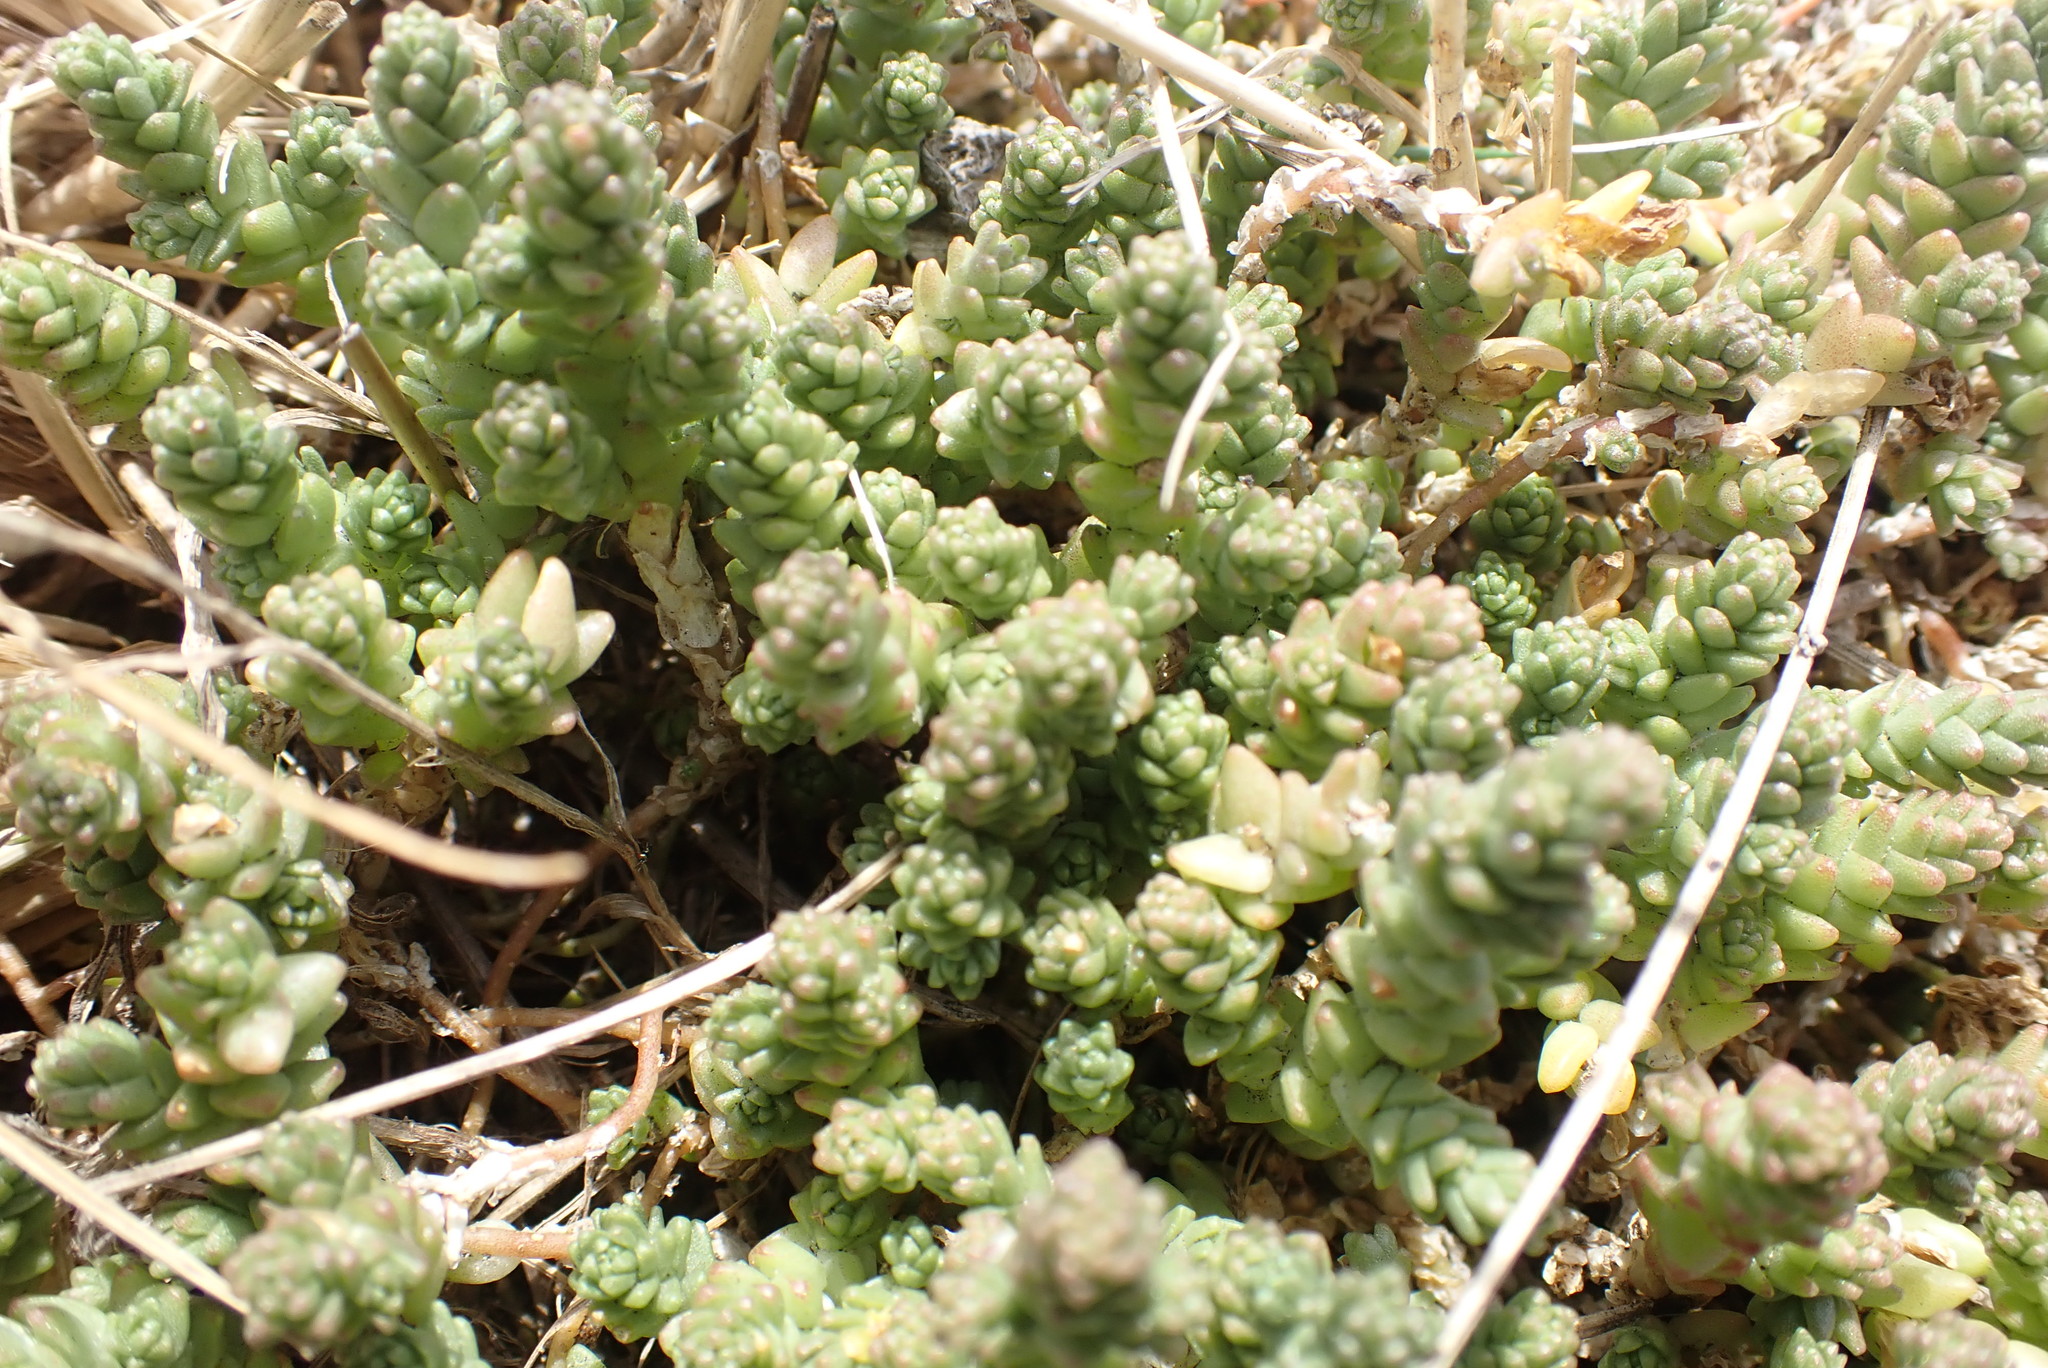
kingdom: Plantae
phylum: Tracheophyta
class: Magnoliopsida
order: Saxifragales
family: Crassulaceae
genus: Sedum
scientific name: Sedum acre
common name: Biting stonecrop
